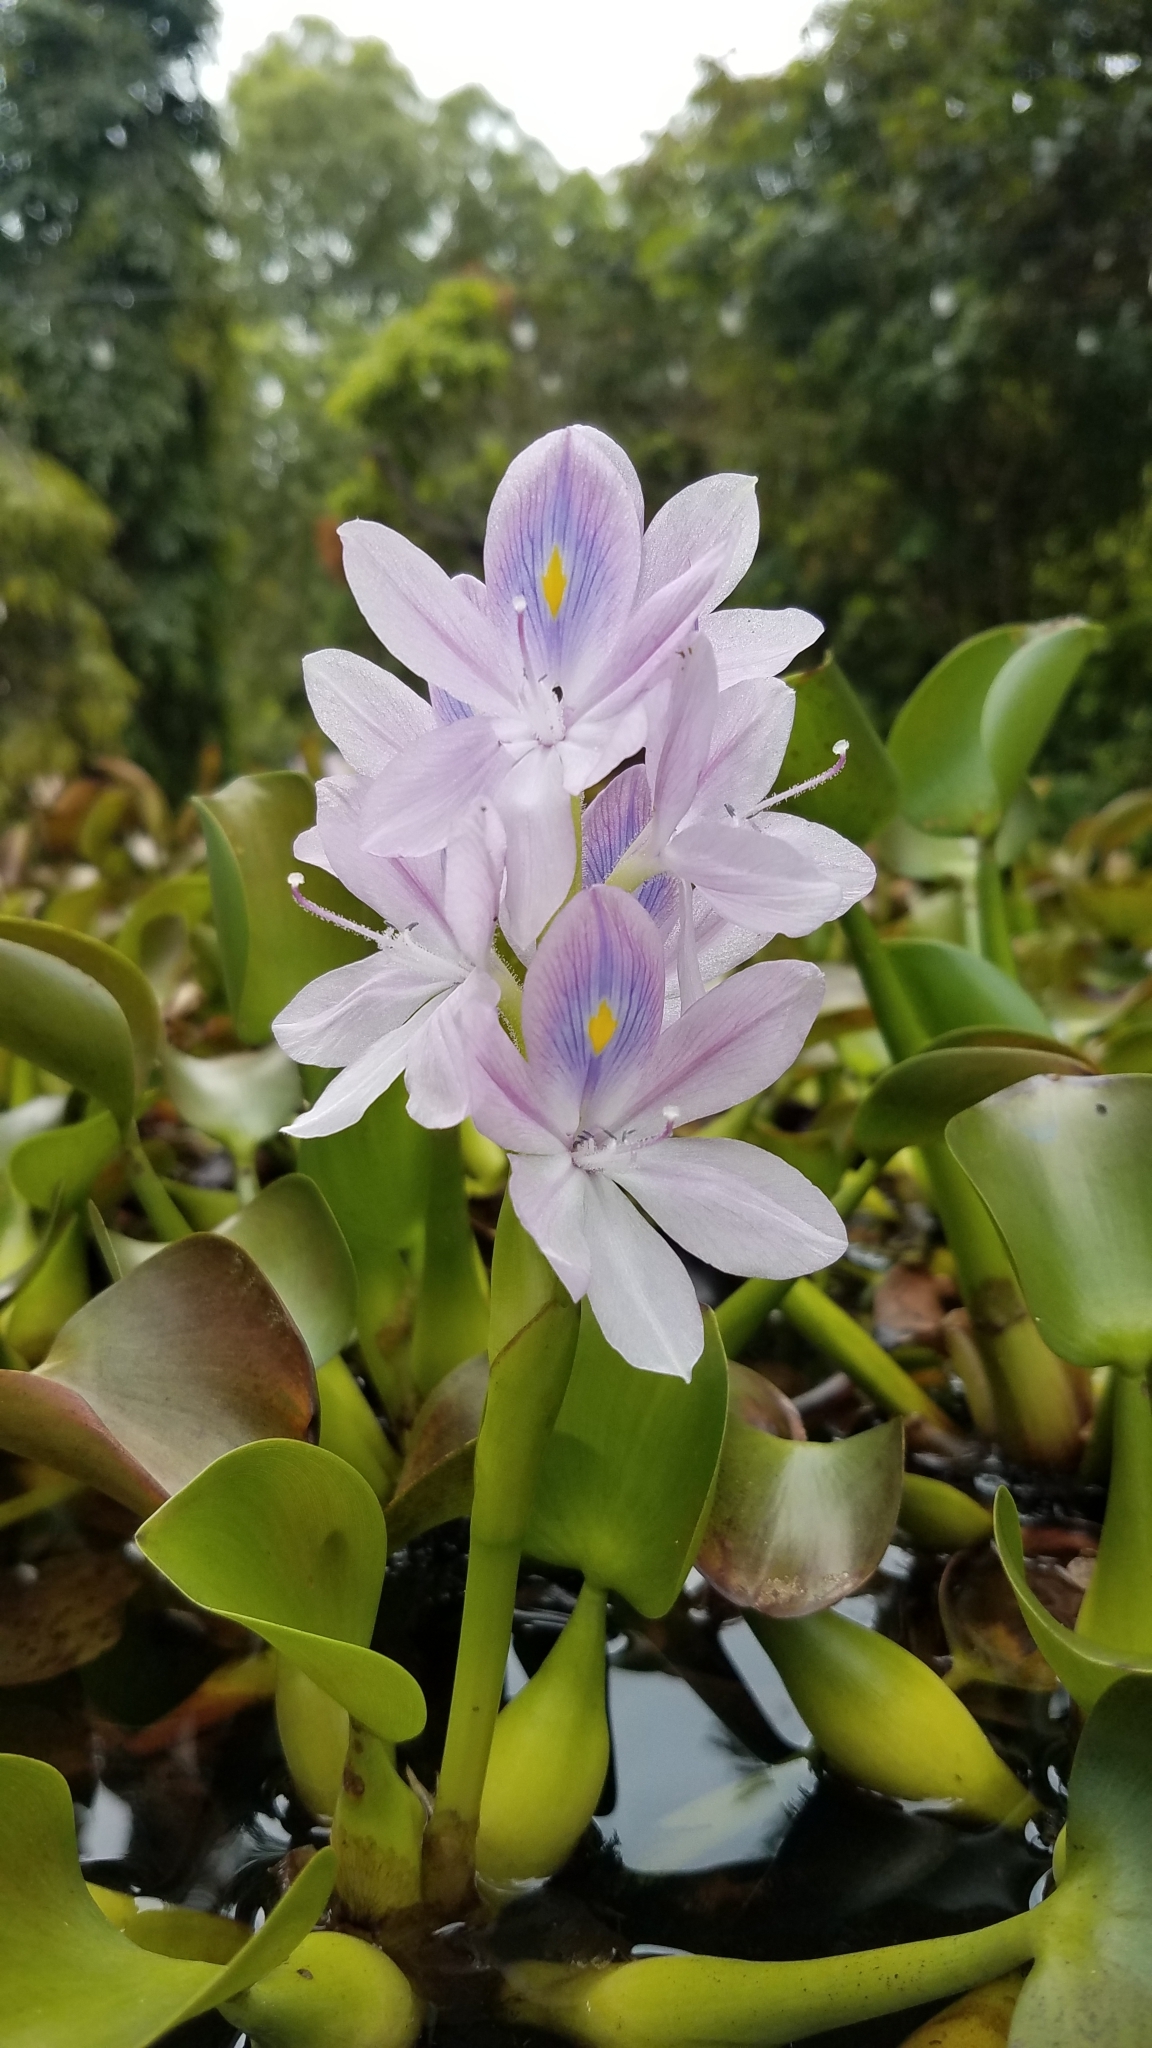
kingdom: Plantae
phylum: Tracheophyta
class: Liliopsida
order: Commelinales
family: Pontederiaceae
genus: Pontederia
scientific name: Pontederia crassipes
